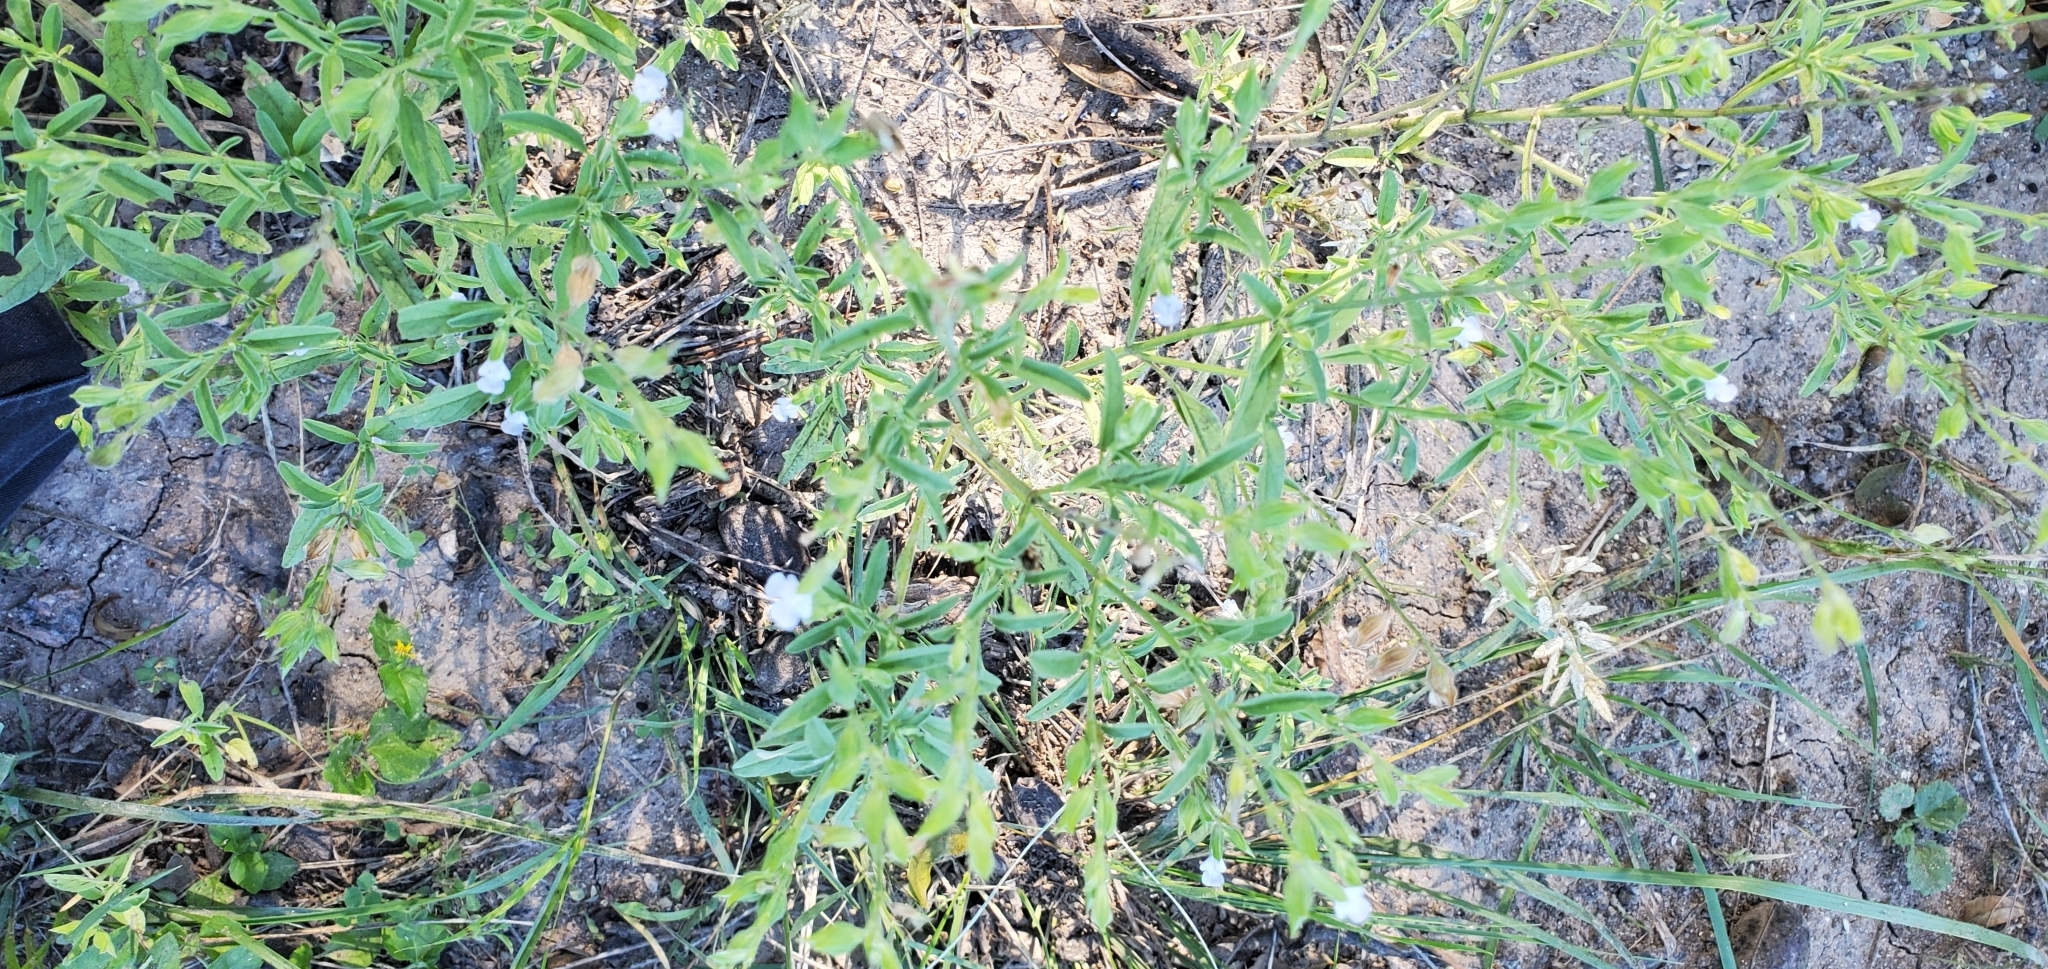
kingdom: Plantae
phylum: Tracheophyta
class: Magnoliopsida
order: Lamiales
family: Lamiaceae
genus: Salvia
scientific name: Salvia reflexa
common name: Mintweed
